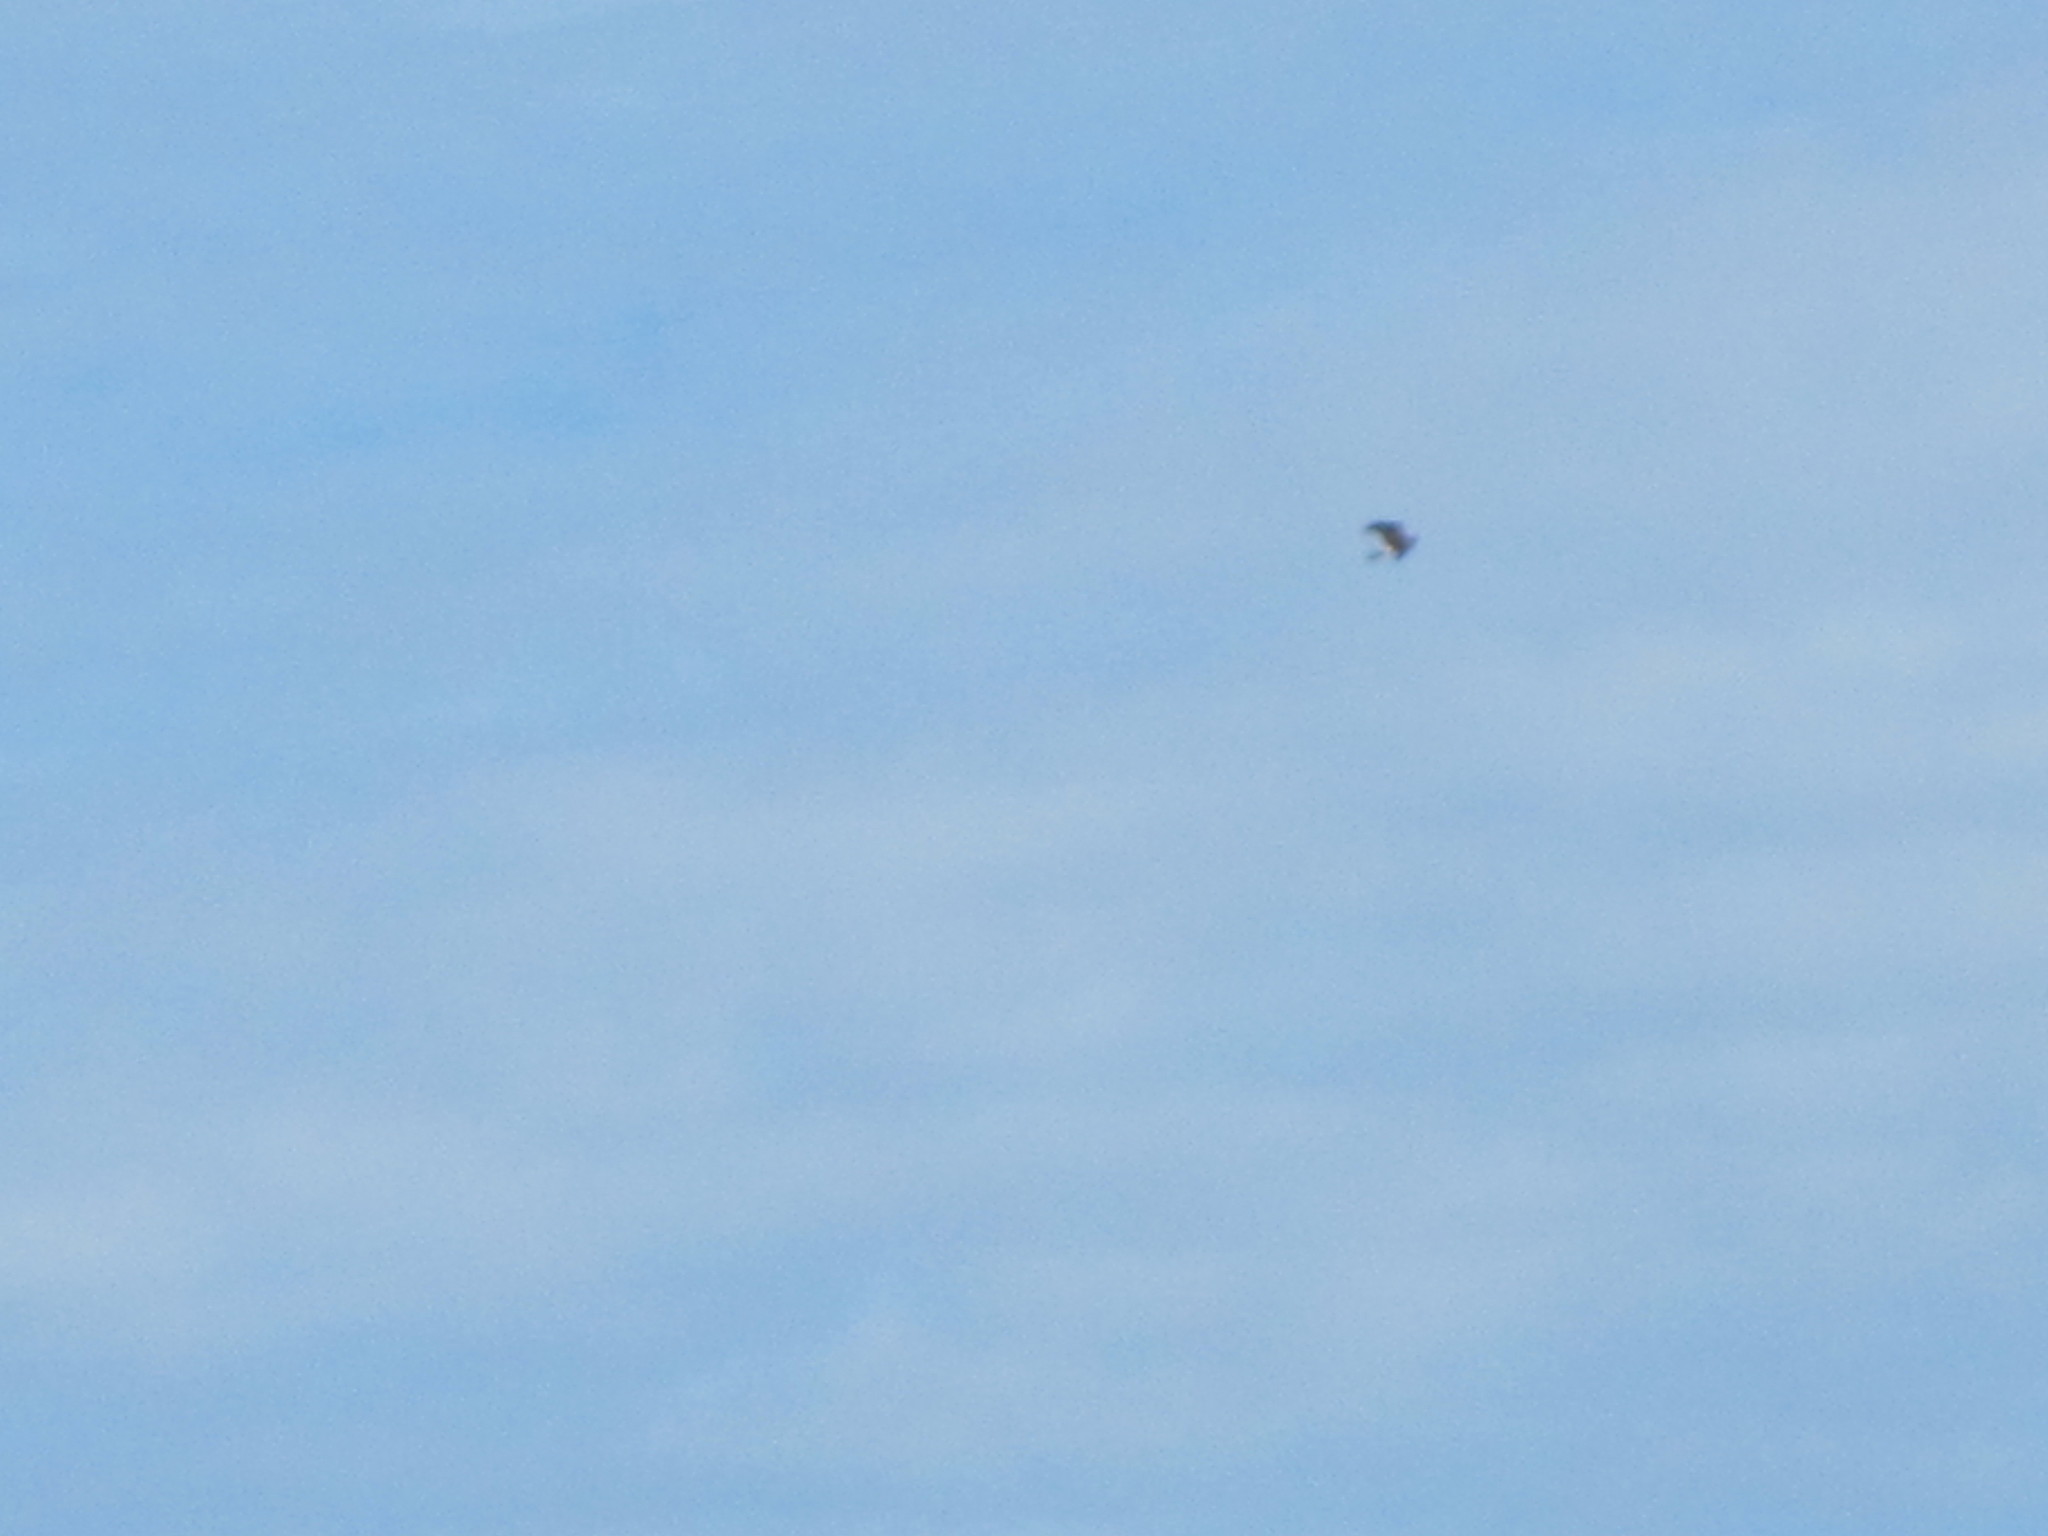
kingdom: Animalia
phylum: Chordata
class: Aves
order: Accipitriformes
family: Accipitridae
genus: Circus
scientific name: Circus cyaneus
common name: Hen harrier
